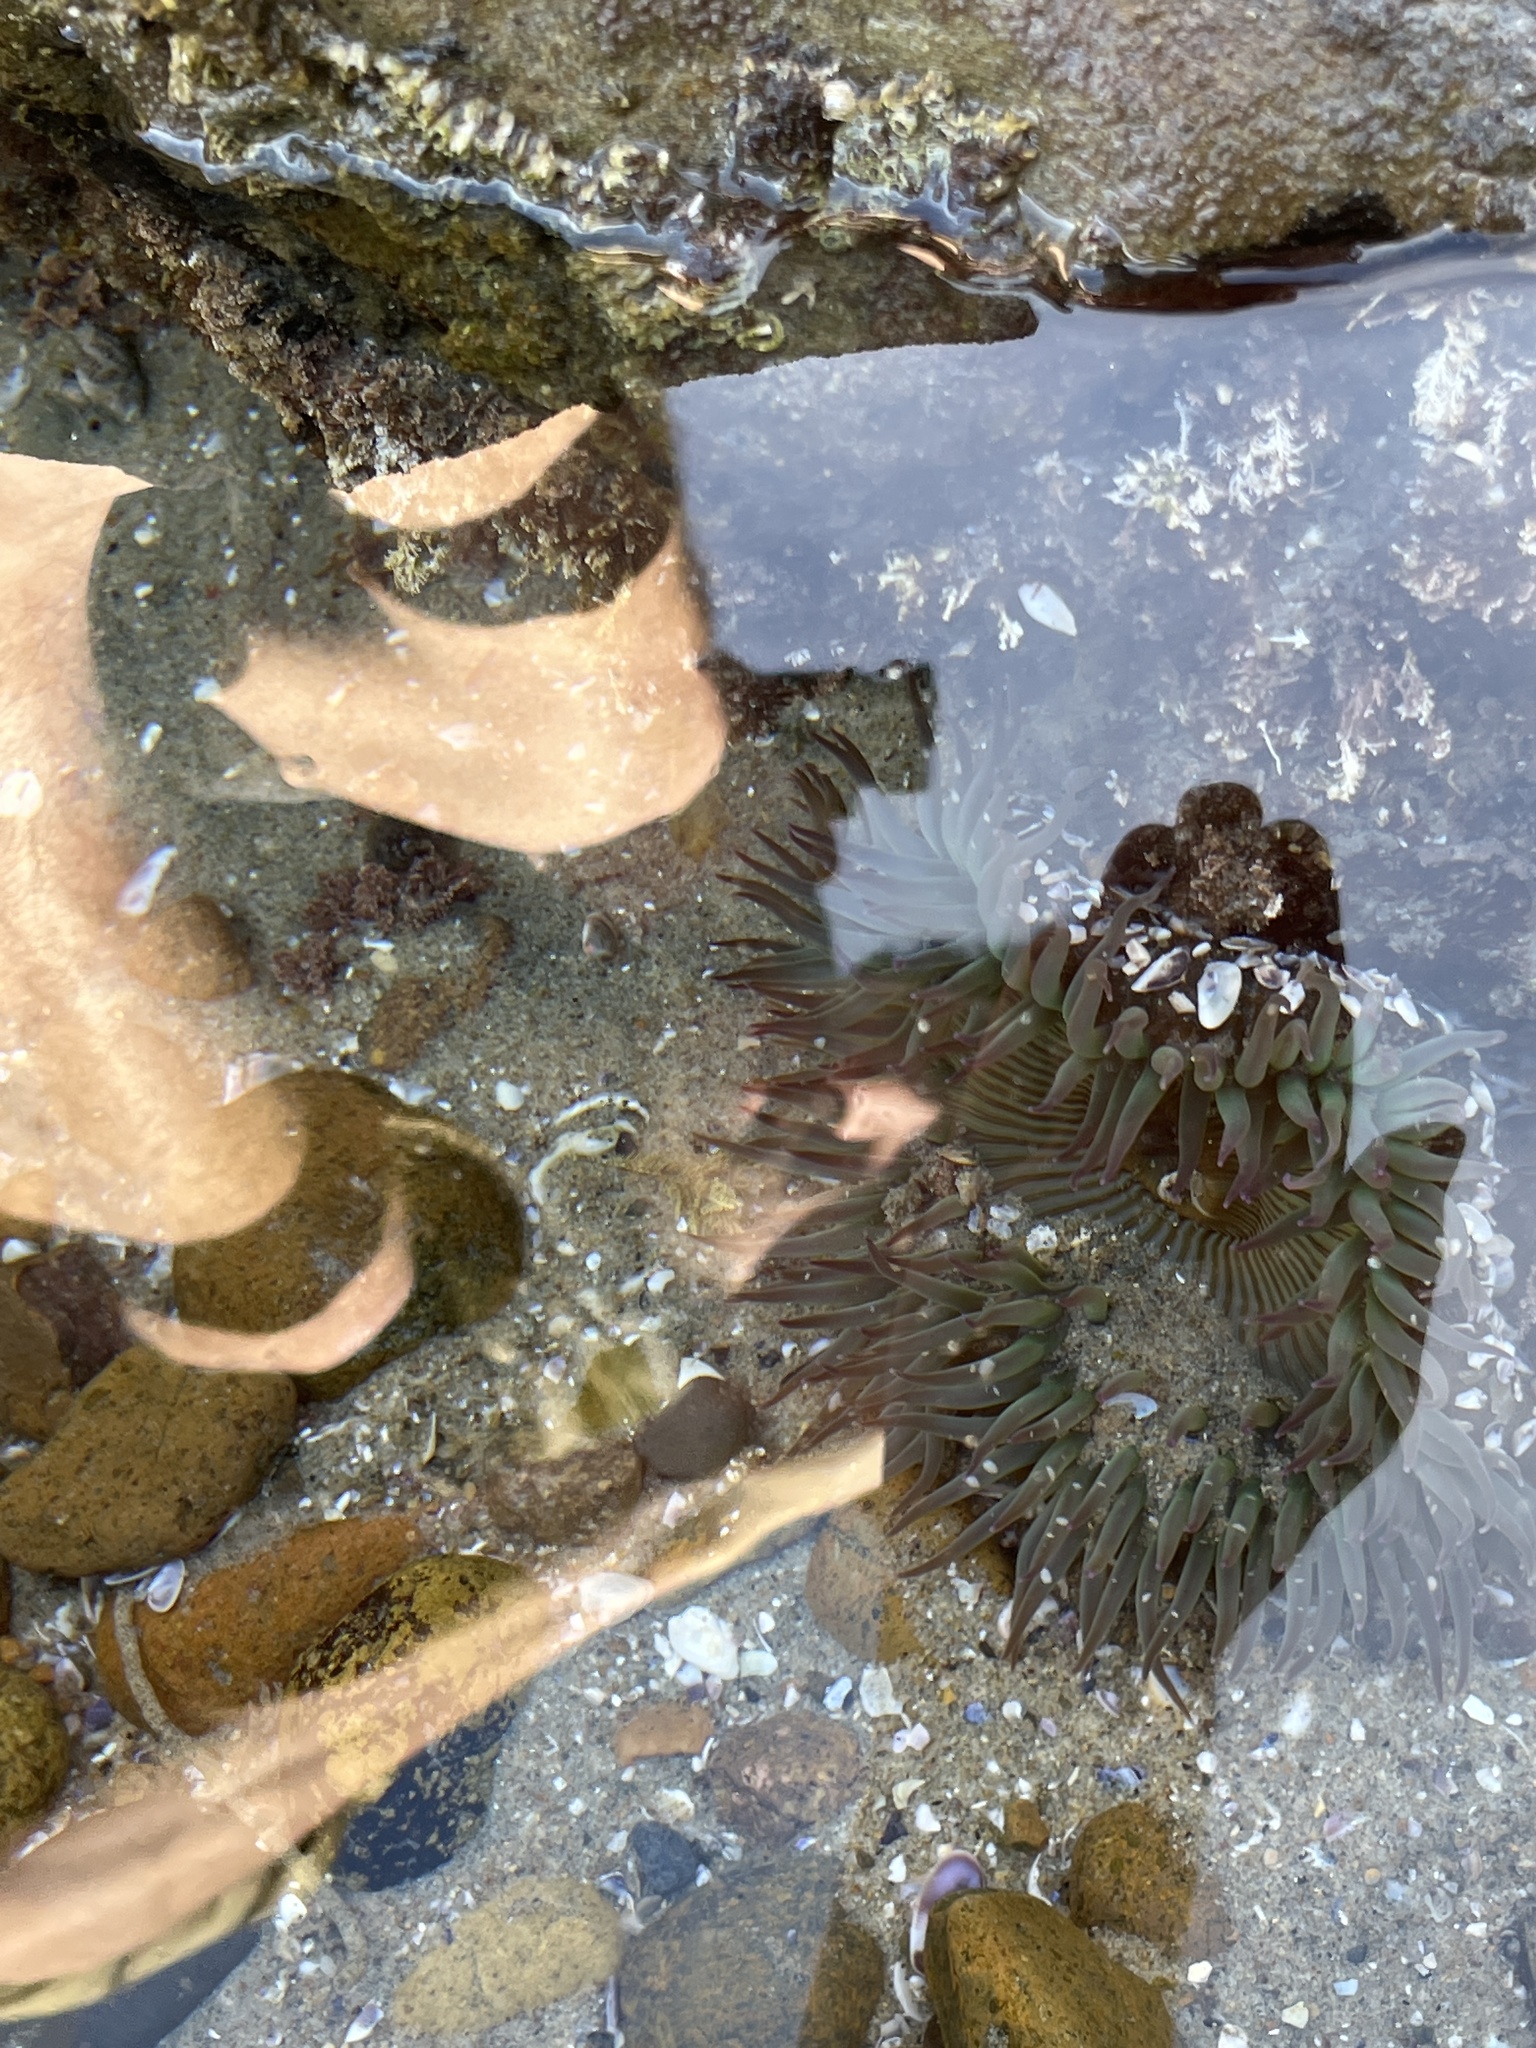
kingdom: Animalia
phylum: Cnidaria
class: Anthozoa
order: Actiniaria
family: Actiniidae
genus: Anthopleura
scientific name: Anthopleura sola
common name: Sun anemone
